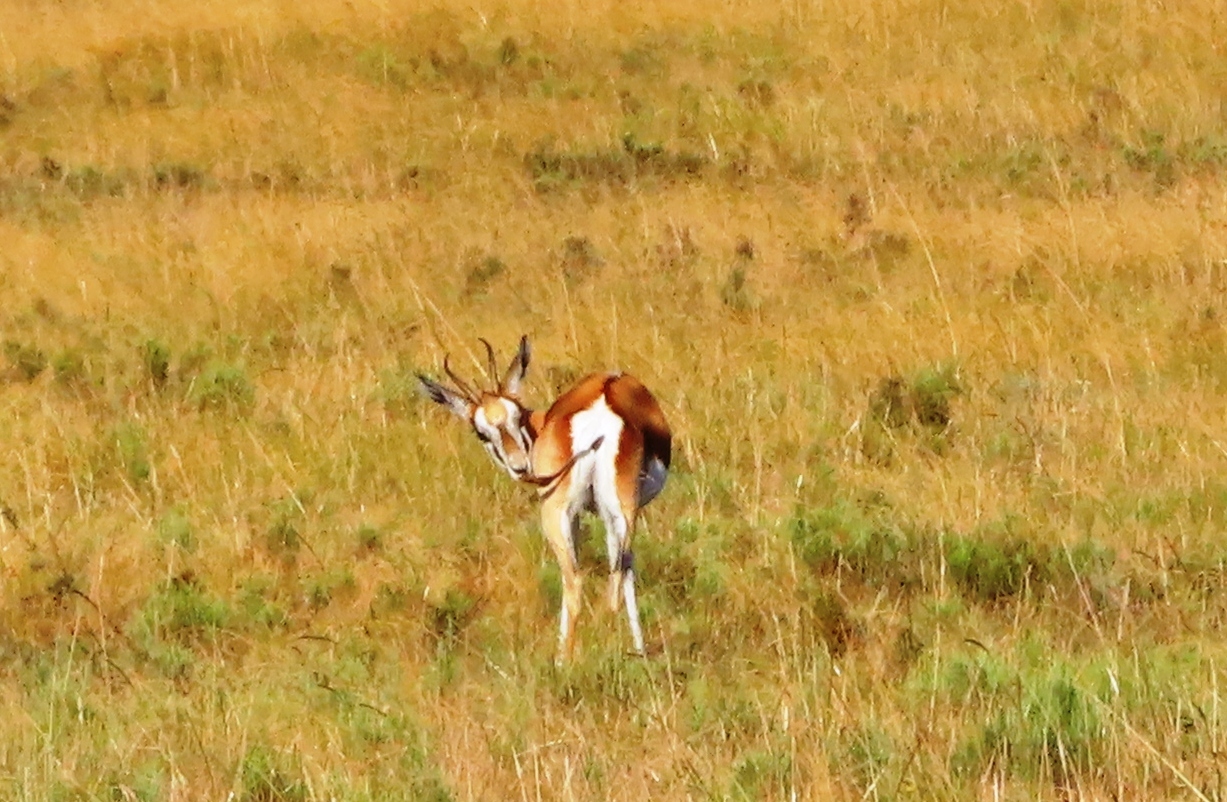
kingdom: Animalia
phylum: Chordata
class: Mammalia
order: Artiodactyla
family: Bovidae
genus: Antidorcas
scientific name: Antidorcas marsupialis
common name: Springbok
